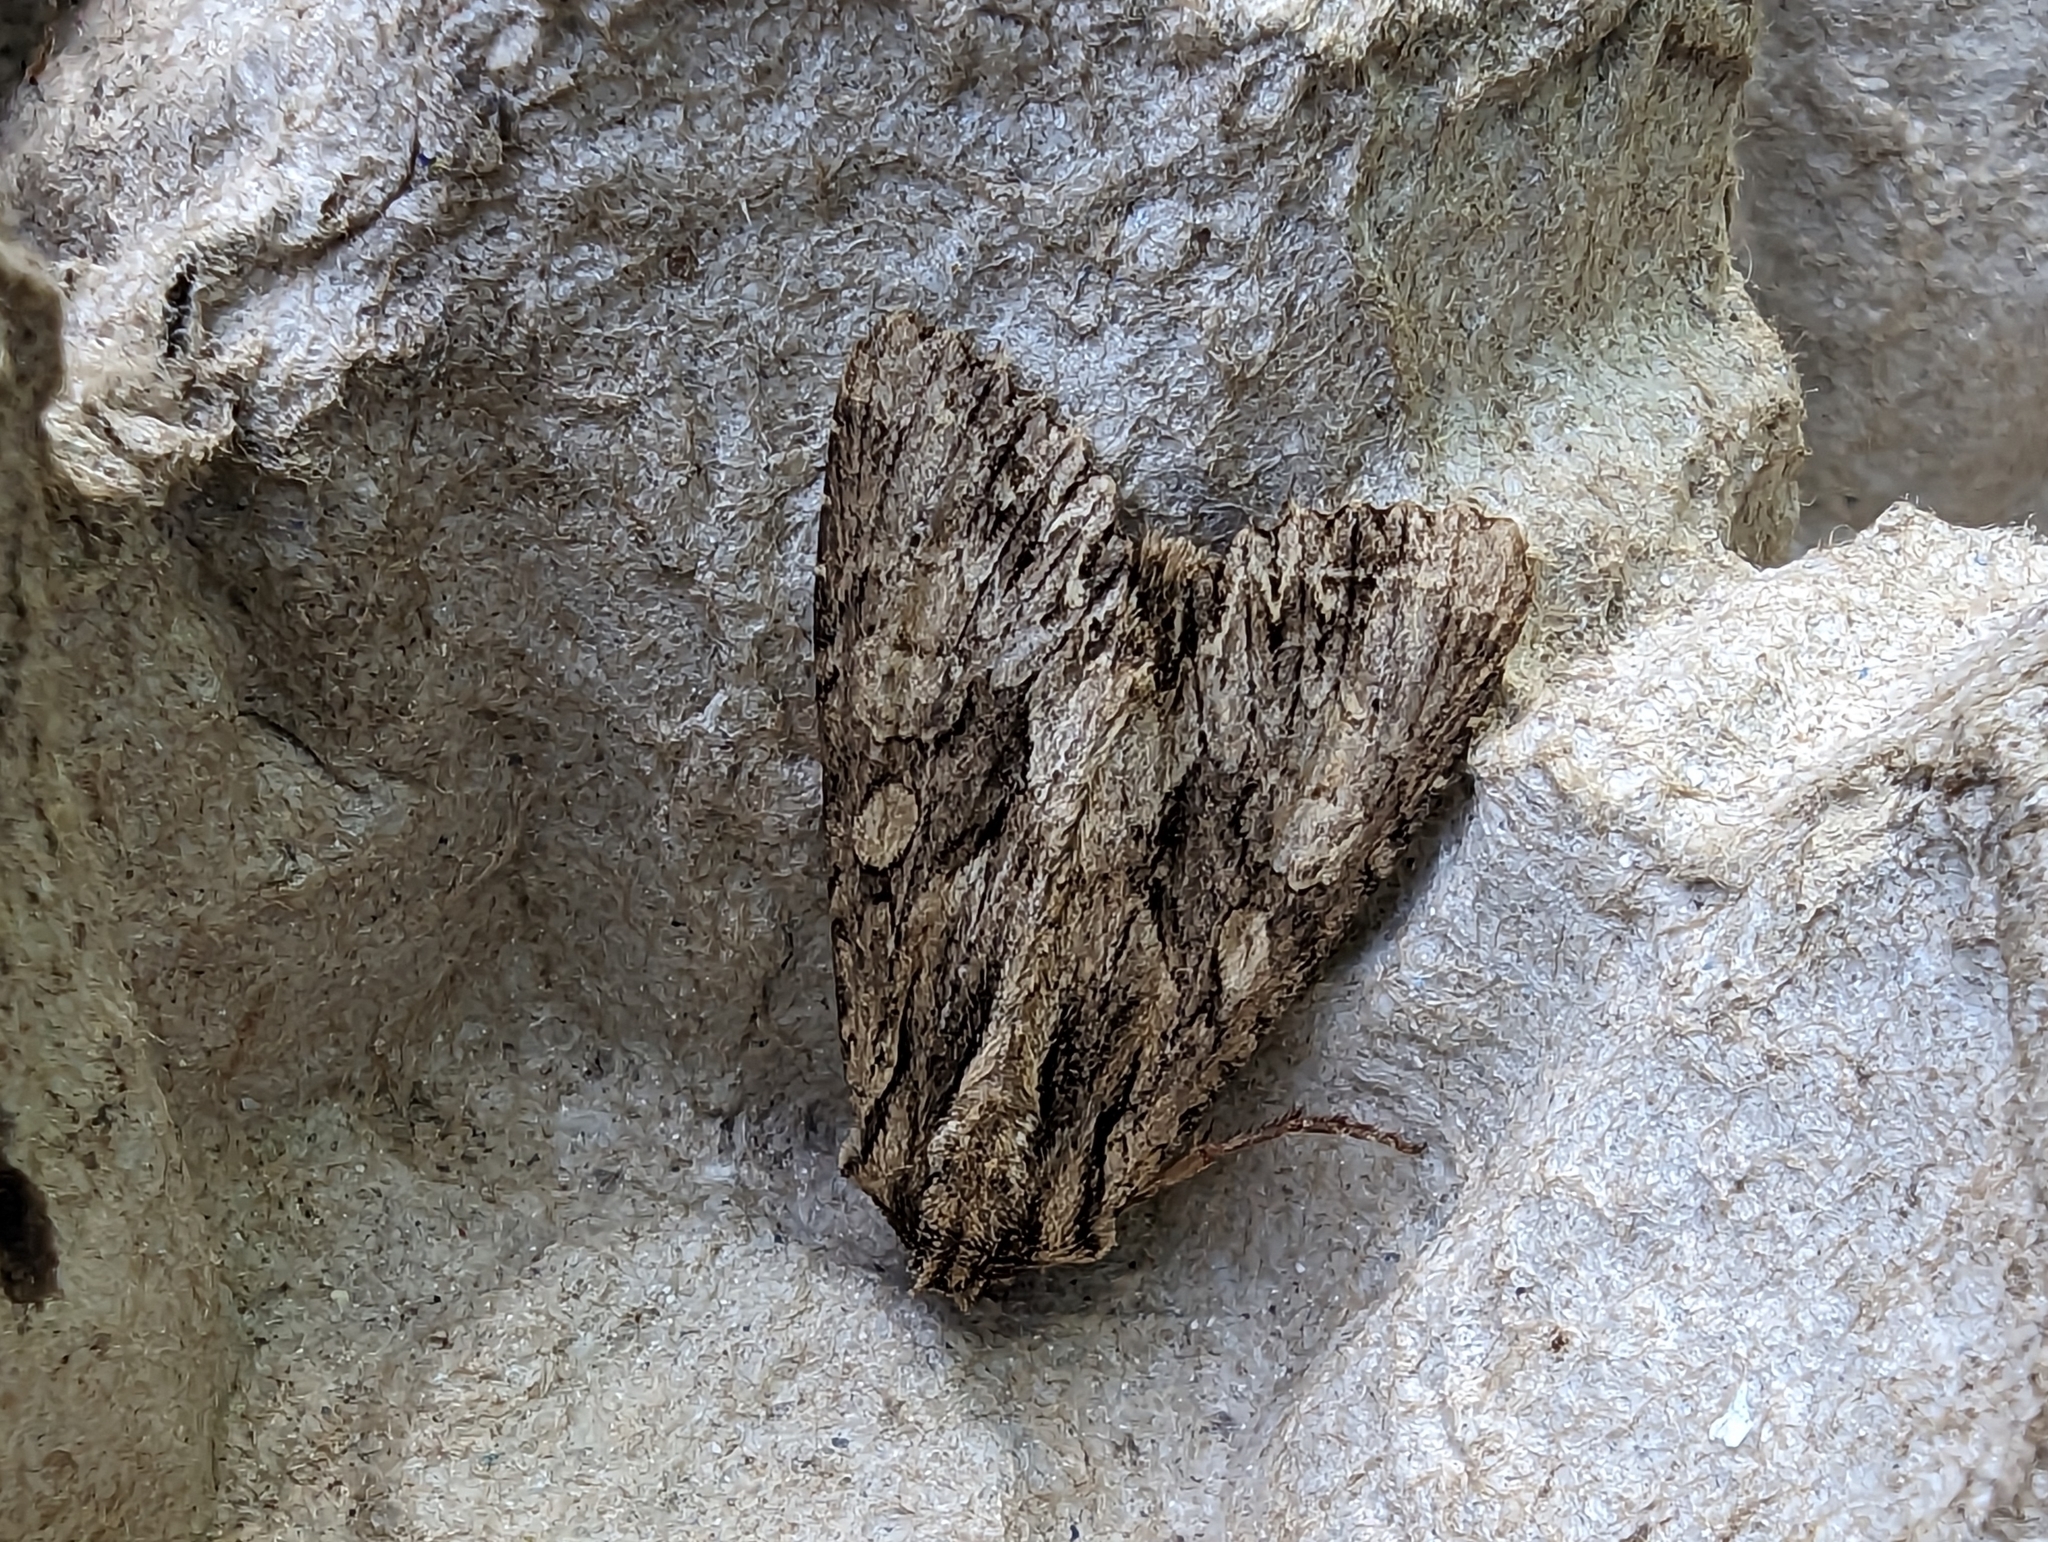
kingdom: Animalia
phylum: Arthropoda
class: Insecta
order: Lepidoptera
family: Noctuidae
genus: Apamea
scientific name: Apamea monoglypha
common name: Dark arches
